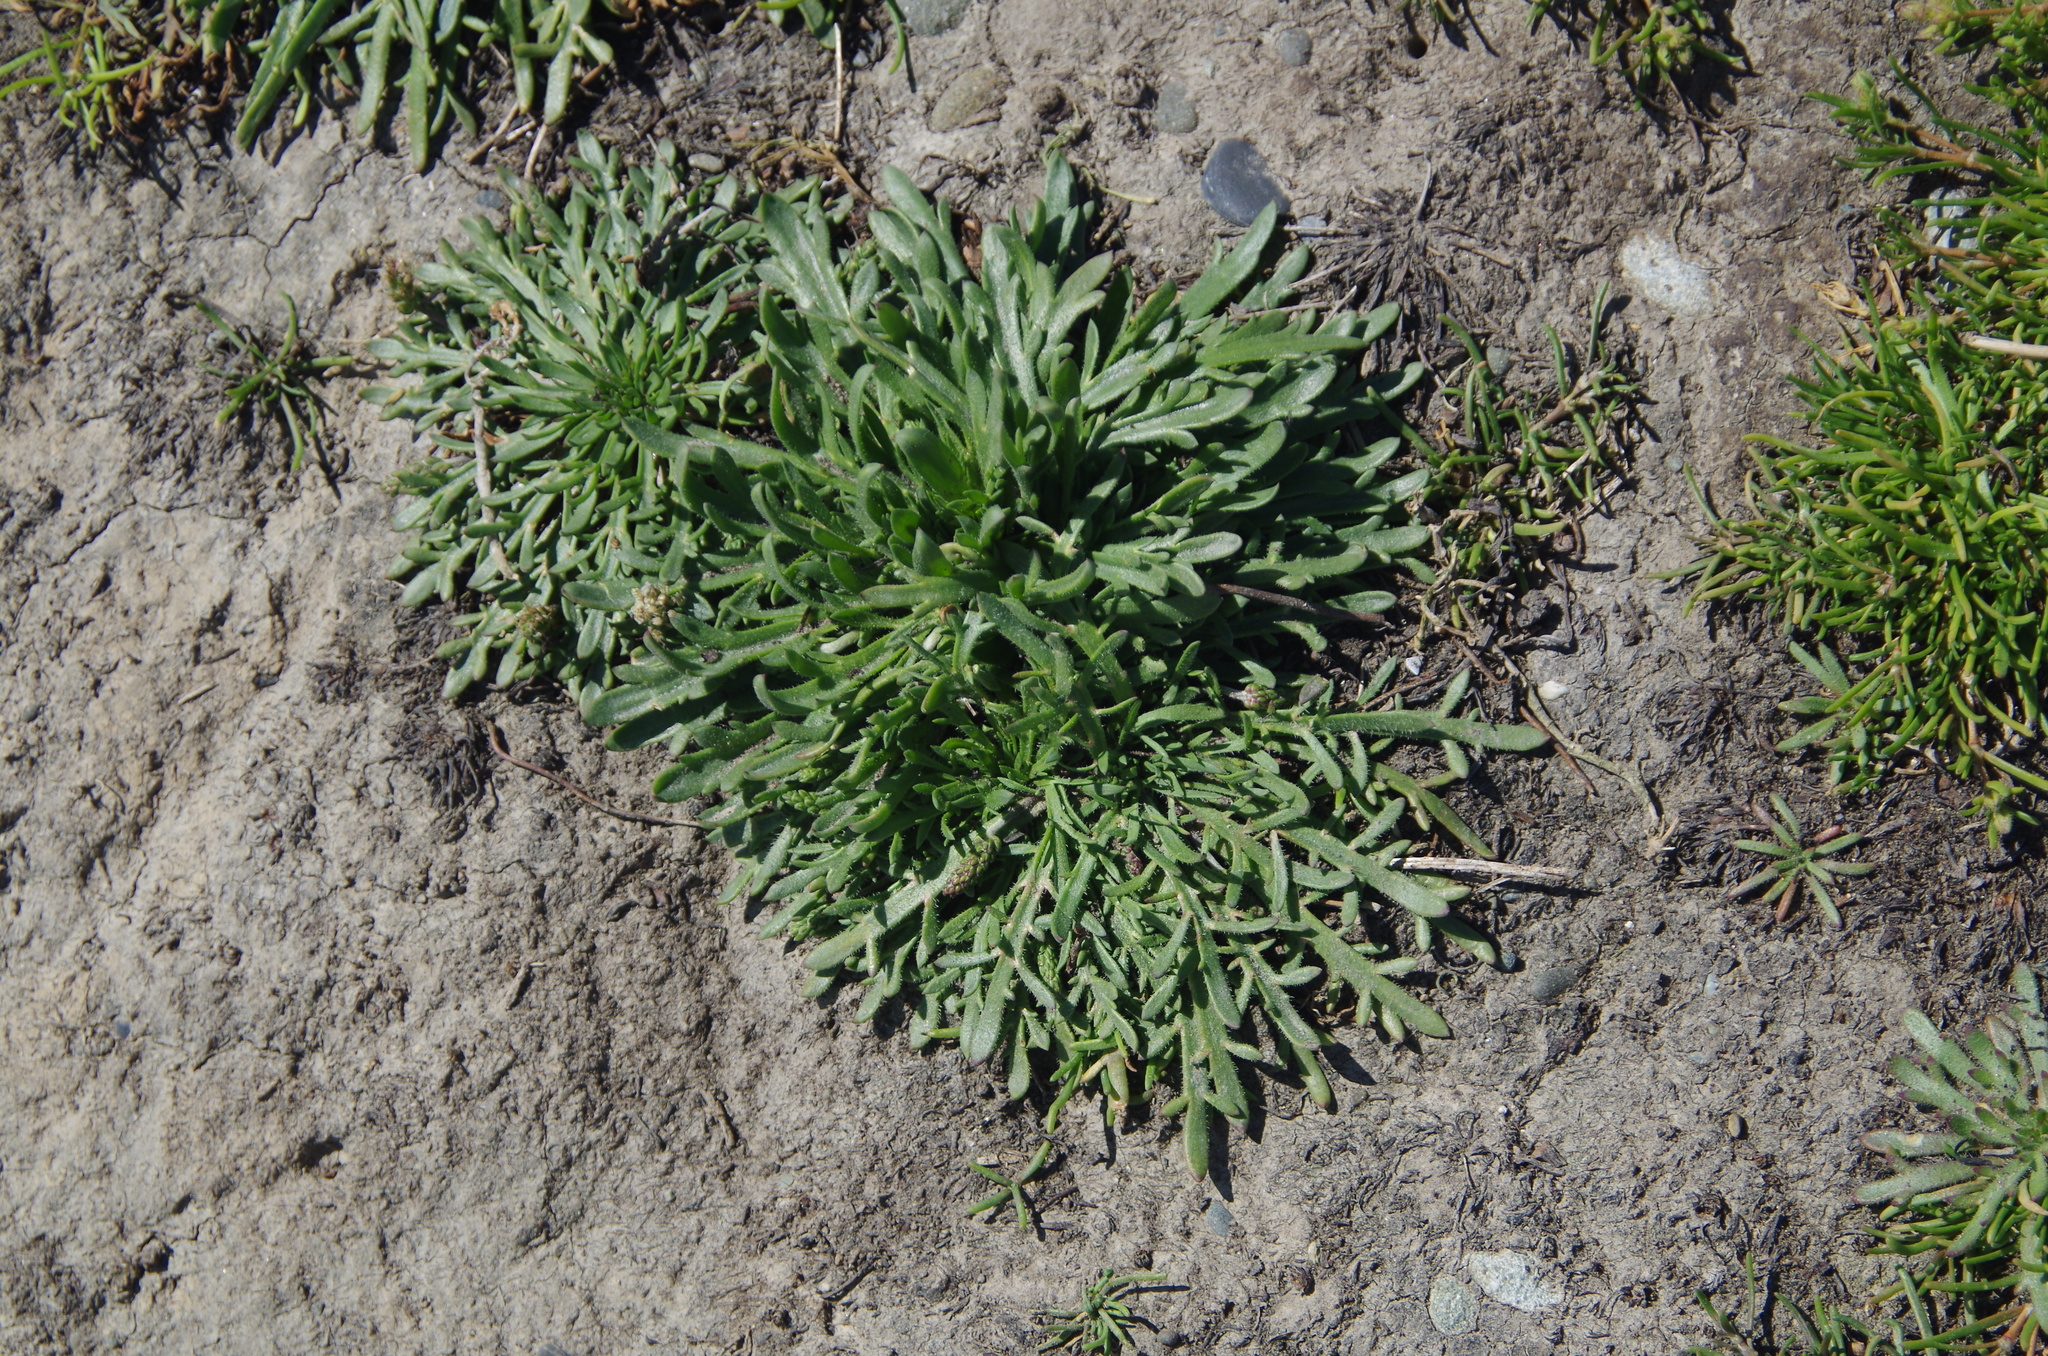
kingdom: Plantae
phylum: Tracheophyta
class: Magnoliopsida
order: Lamiales
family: Plantaginaceae
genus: Plantago
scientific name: Plantago coronopus
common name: Buck's-horn plantain
